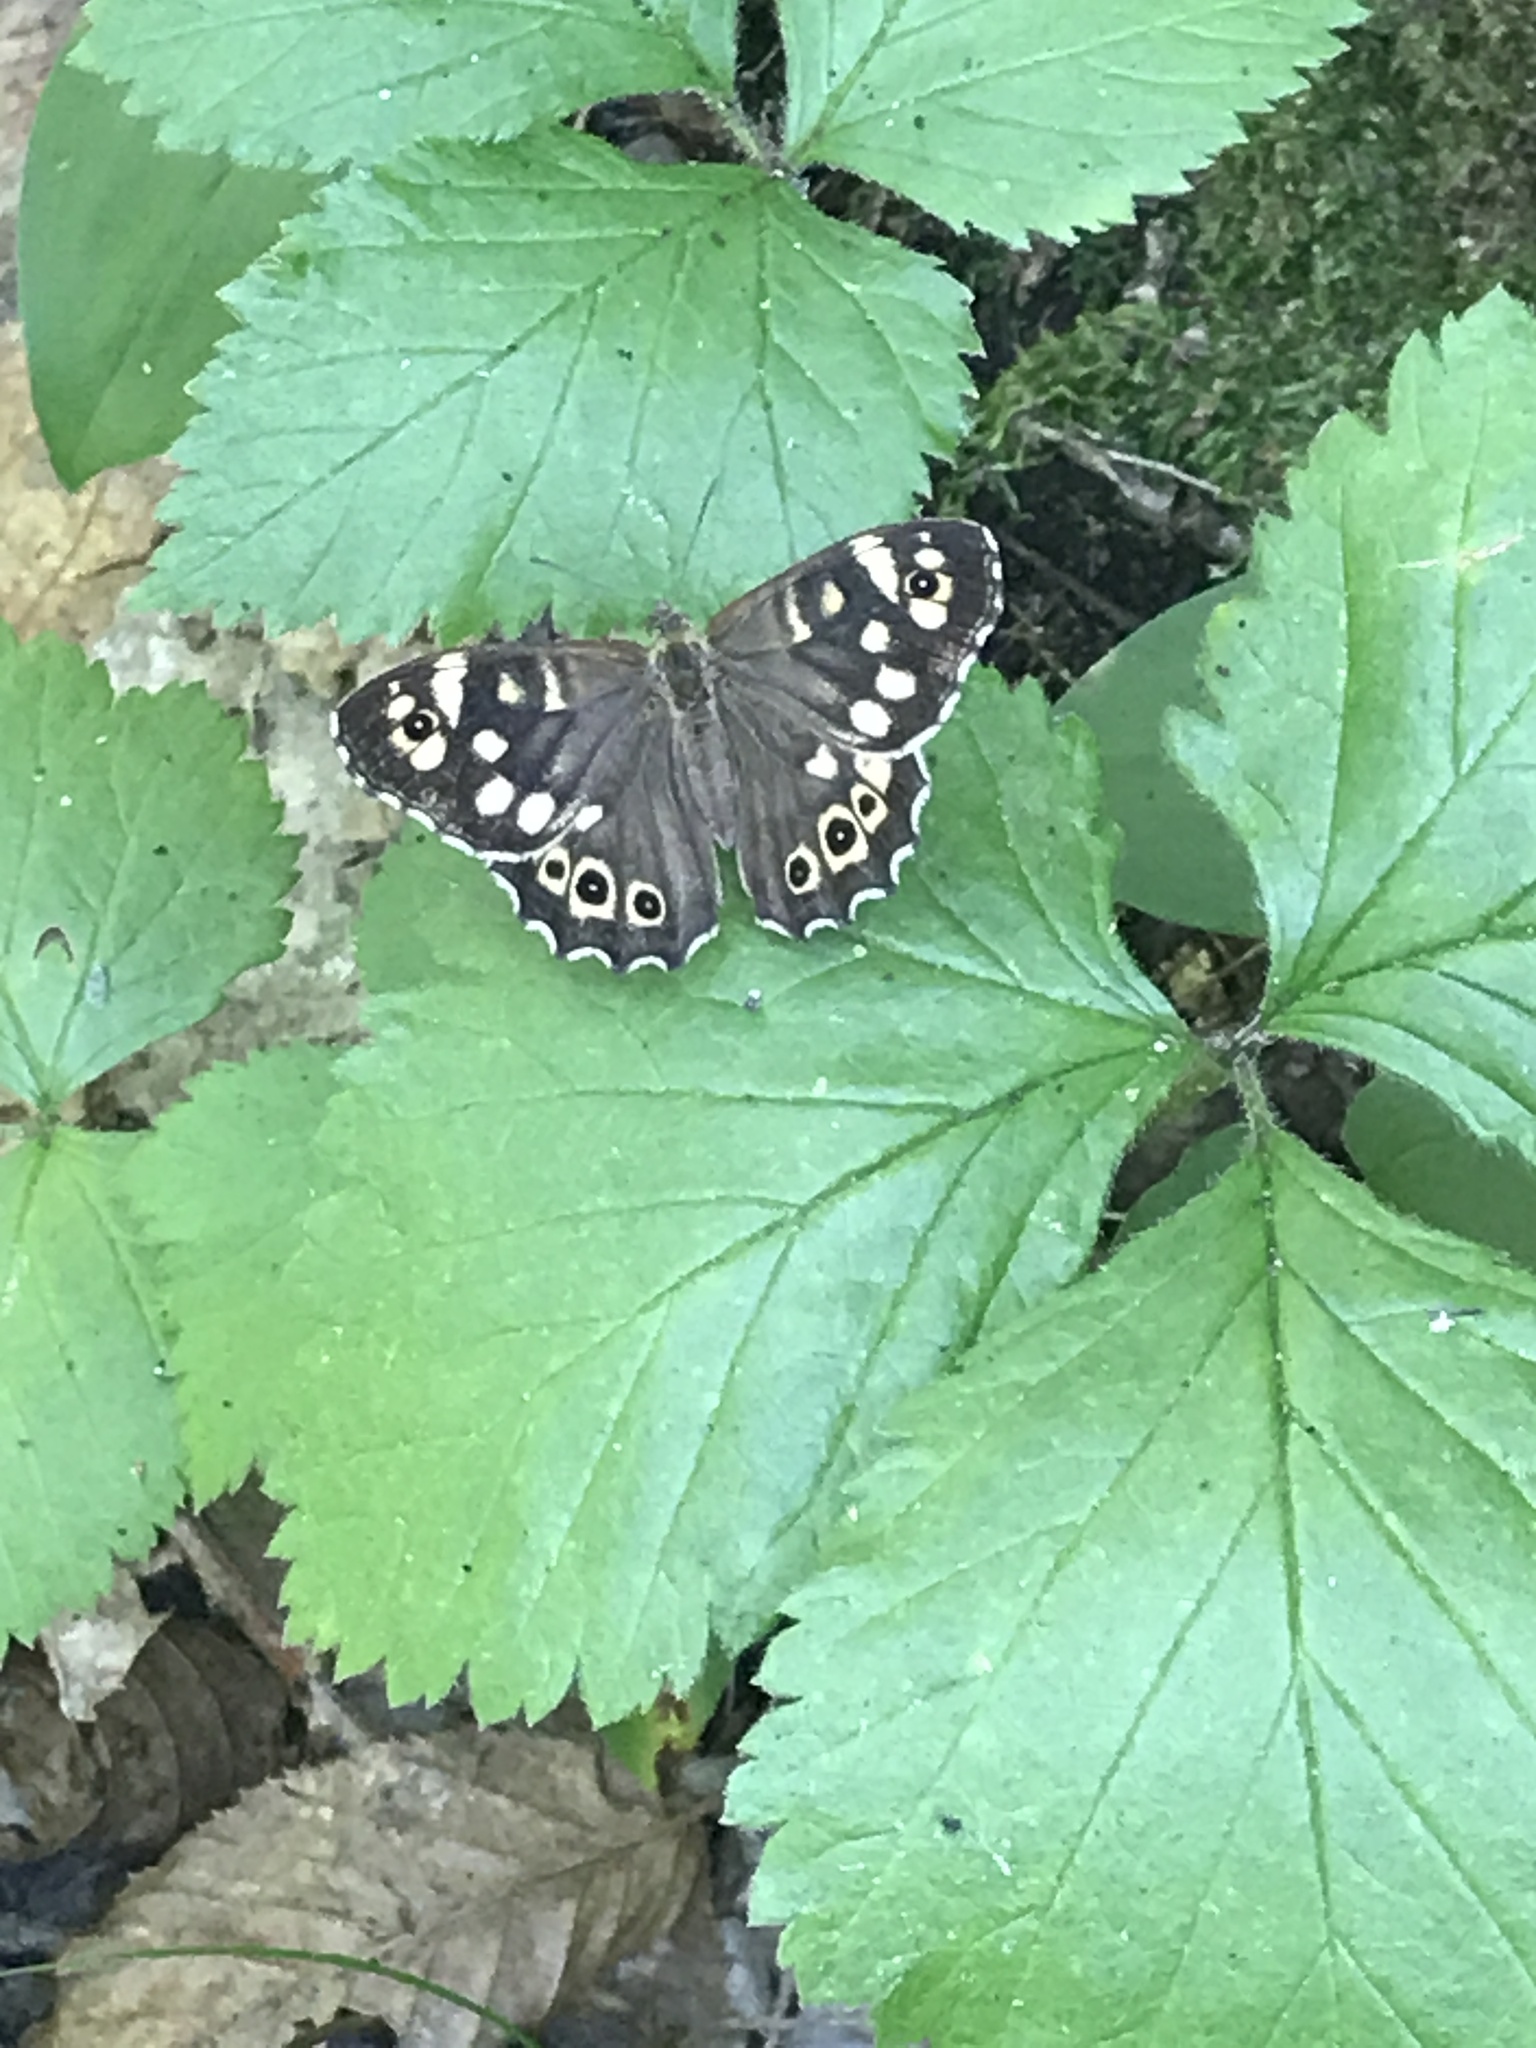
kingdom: Animalia
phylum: Arthropoda
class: Insecta
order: Lepidoptera
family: Nymphalidae
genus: Pararge
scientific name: Pararge aegeria
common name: Speckled wood
